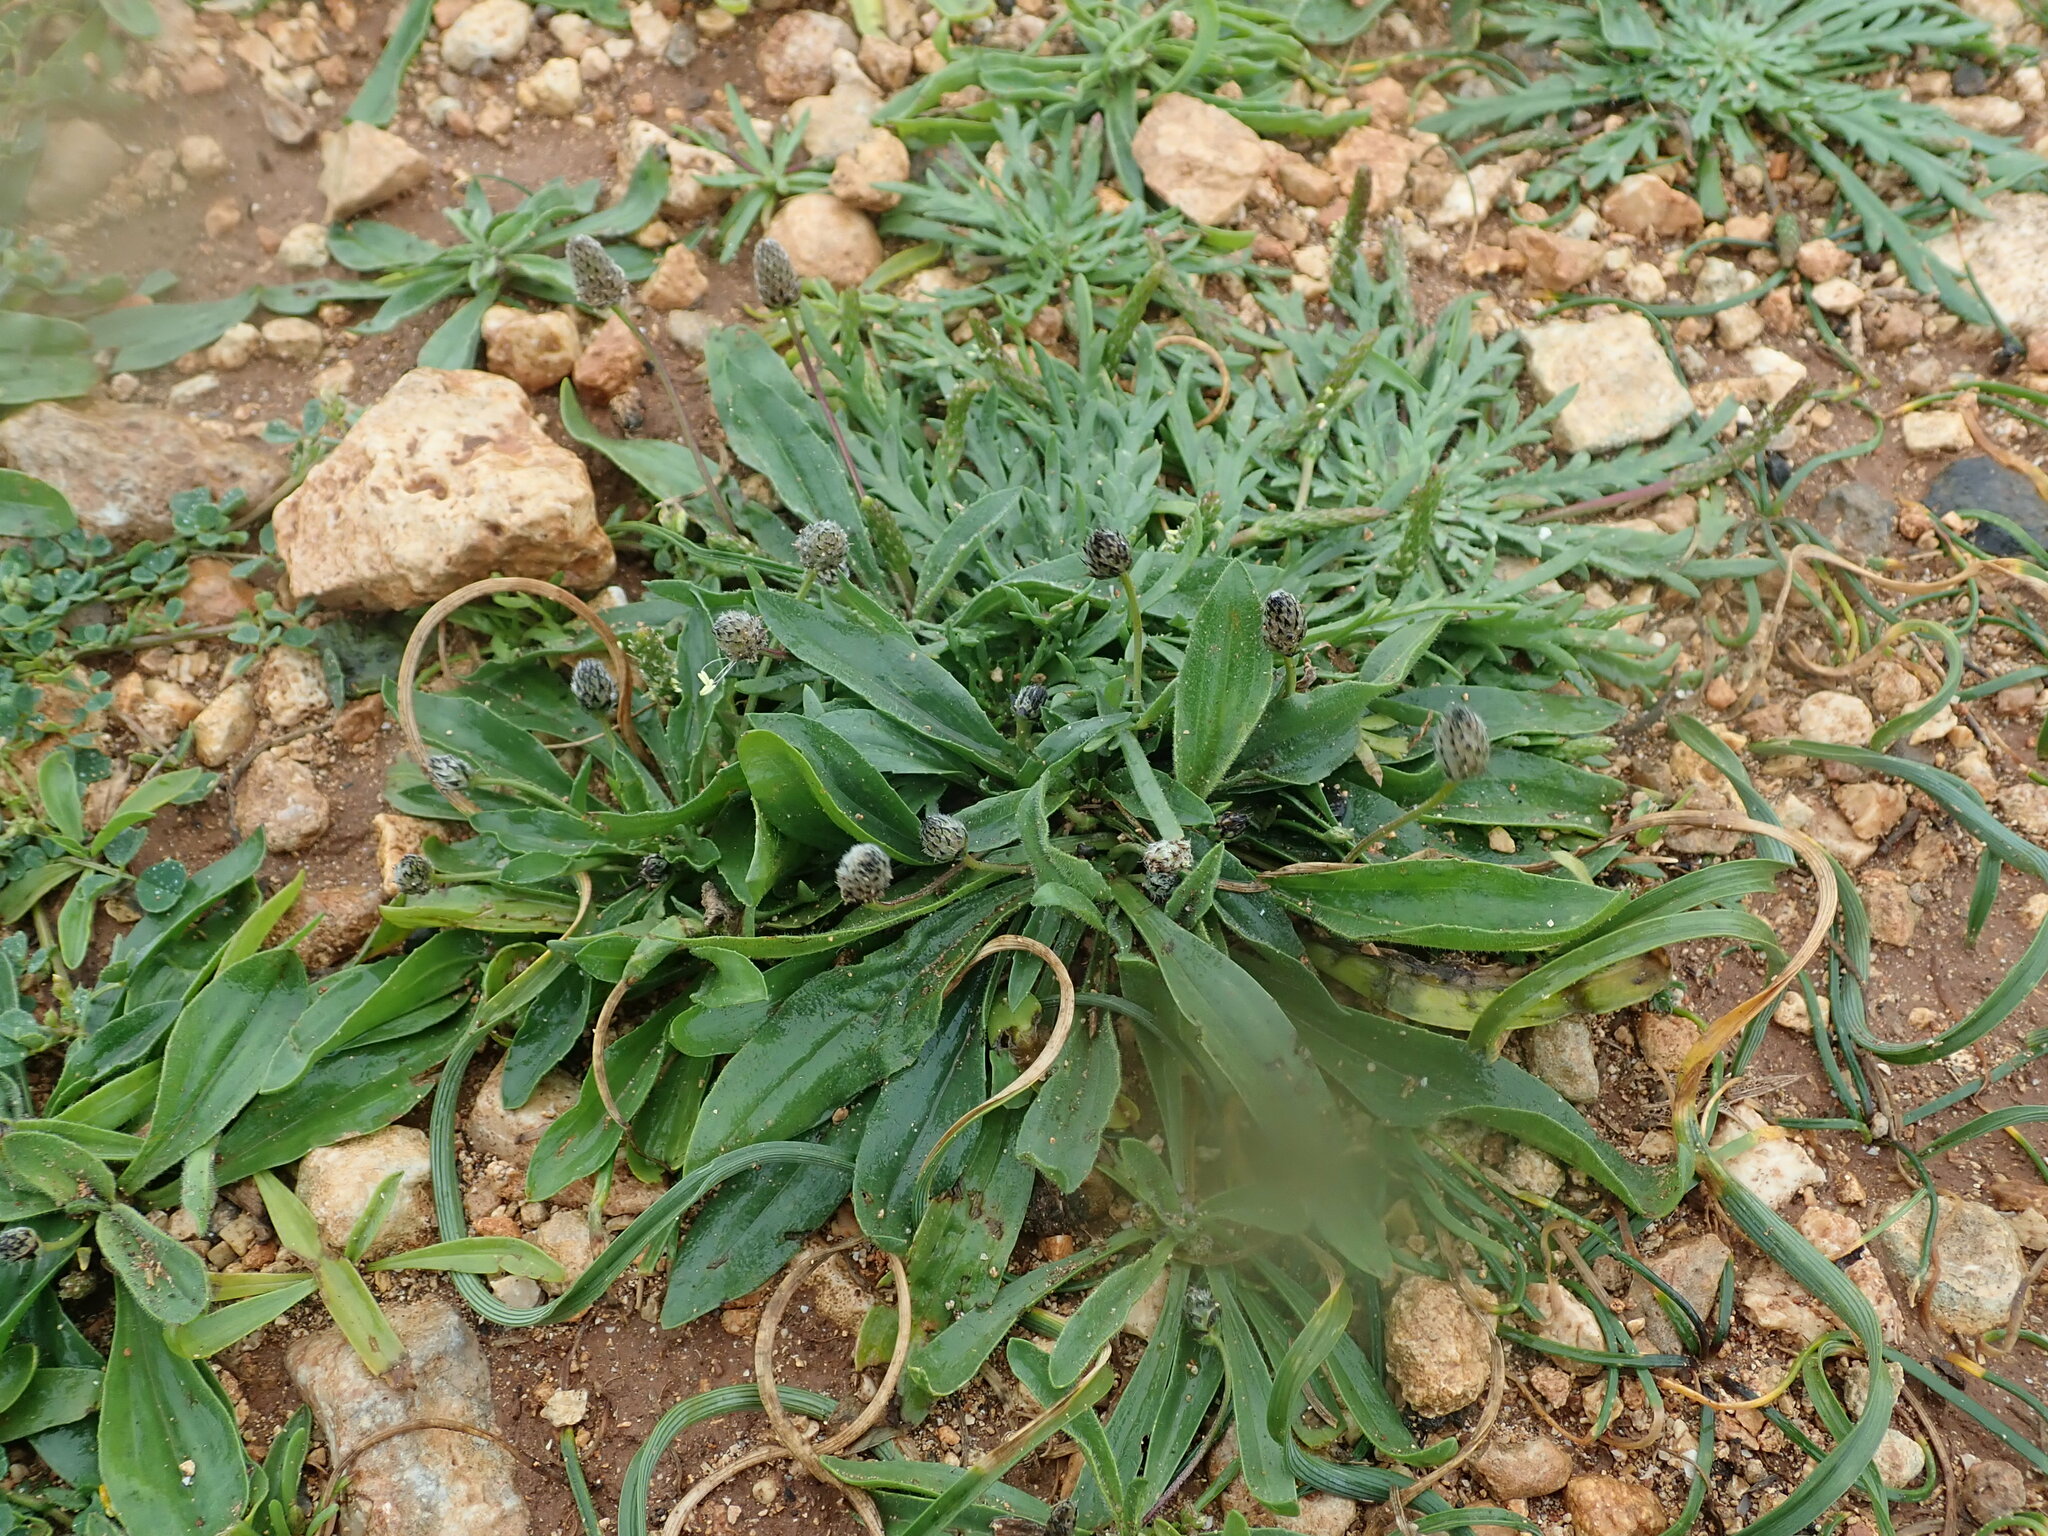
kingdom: Plantae
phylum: Tracheophyta
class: Magnoliopsida
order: Lamiales
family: Plantaginaceae
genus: Plantago
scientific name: Plantago lagopus
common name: Hare-foot plantain
